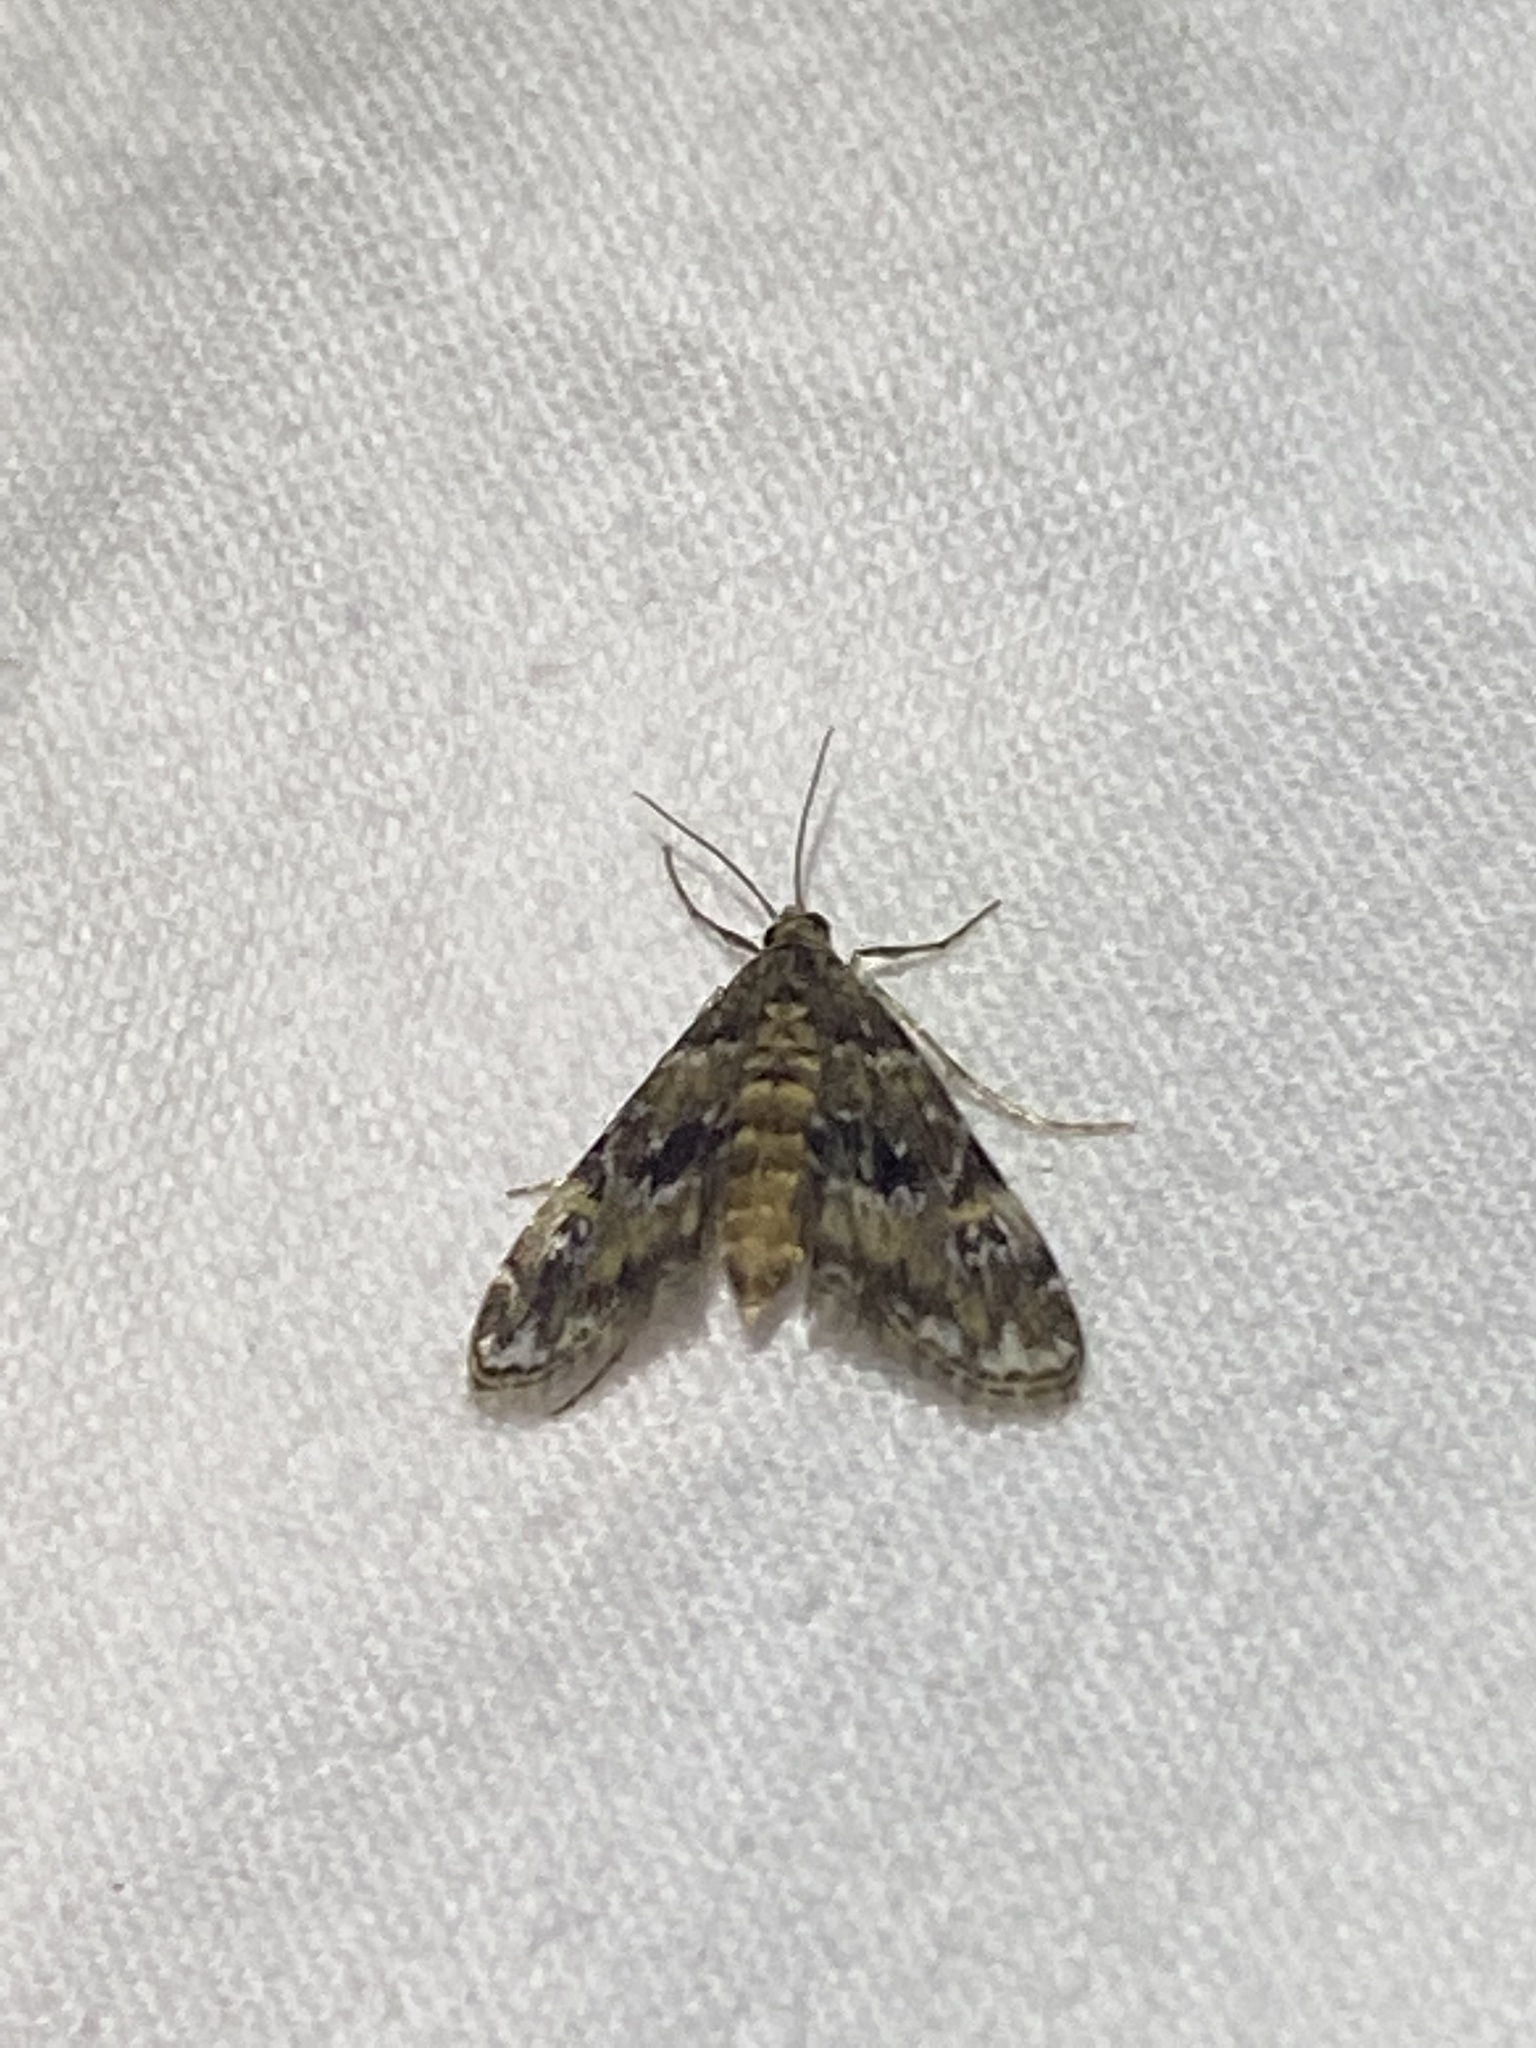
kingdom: Animalia
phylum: Arthropoda
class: Insecta
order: Lepidoptera
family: Crambidae
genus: Elophila
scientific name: Elophila obliteralis
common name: Waterlily leafcutter moth
